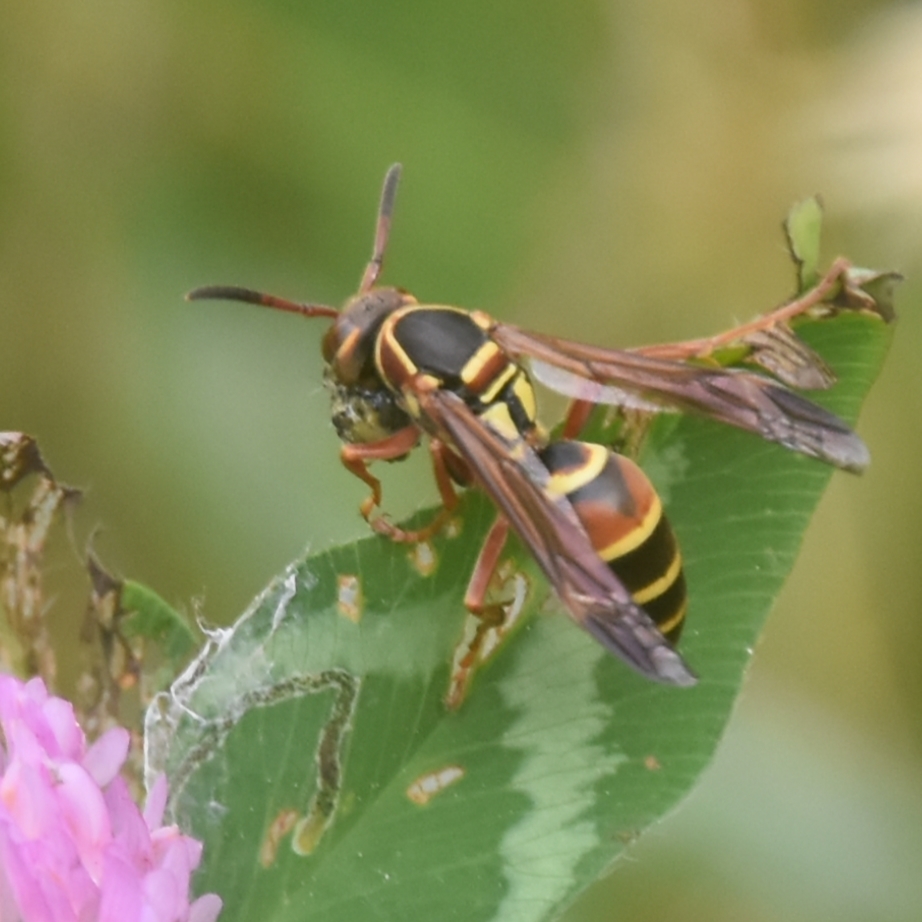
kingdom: Animalia
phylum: Arthropoda
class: Insecta
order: Hymenoptera
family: Eumenidae
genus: Knemodynerus
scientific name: Knemodynerus multimaculatus
